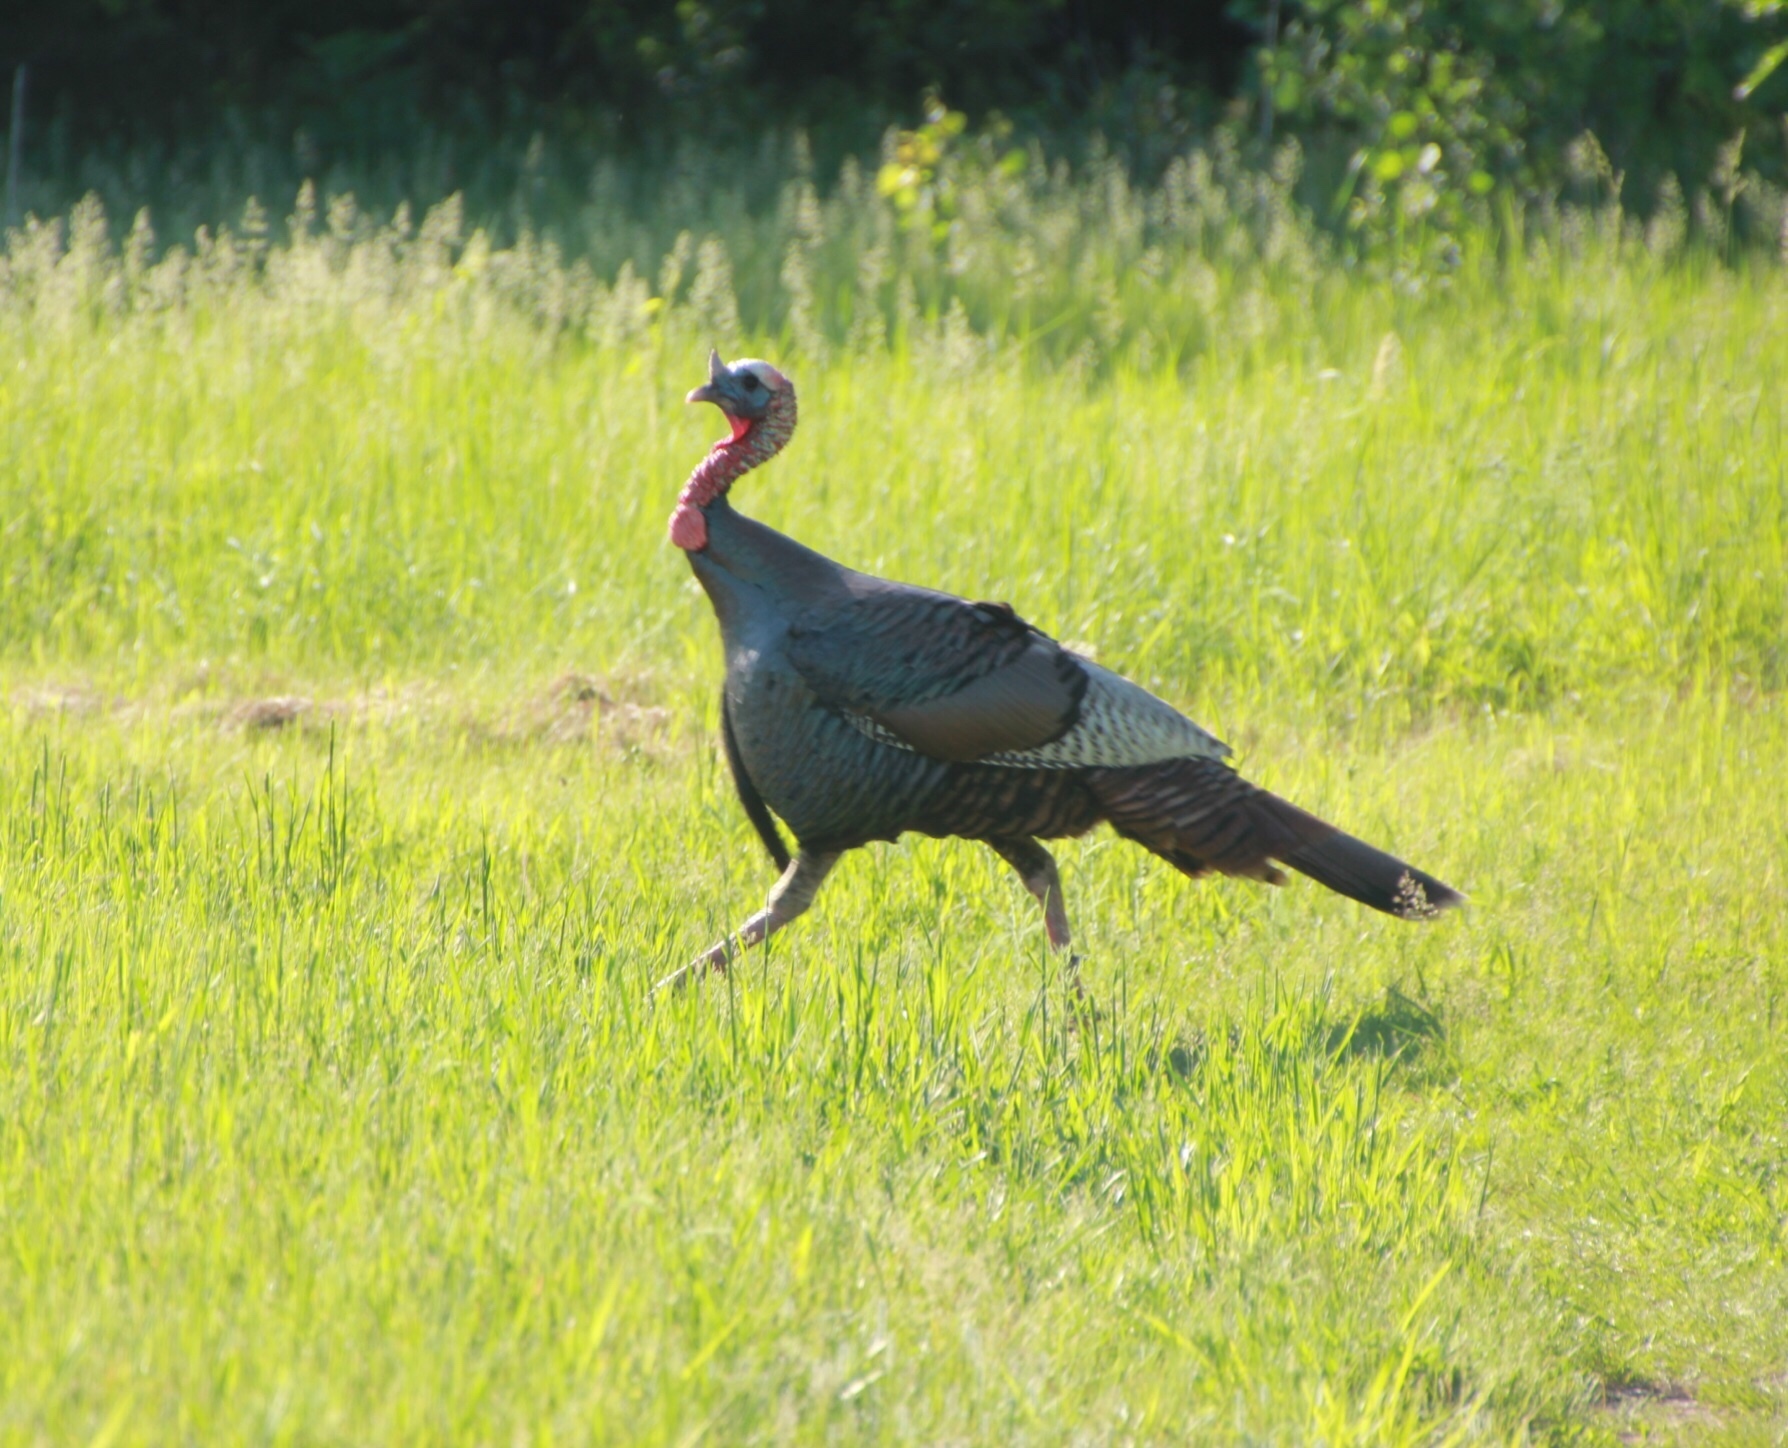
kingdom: Animalia
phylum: Chordata
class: Aves
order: Galliformes
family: Phasianidae
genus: Meleagris
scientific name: Meleagris gallopavo
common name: Wild turkey
